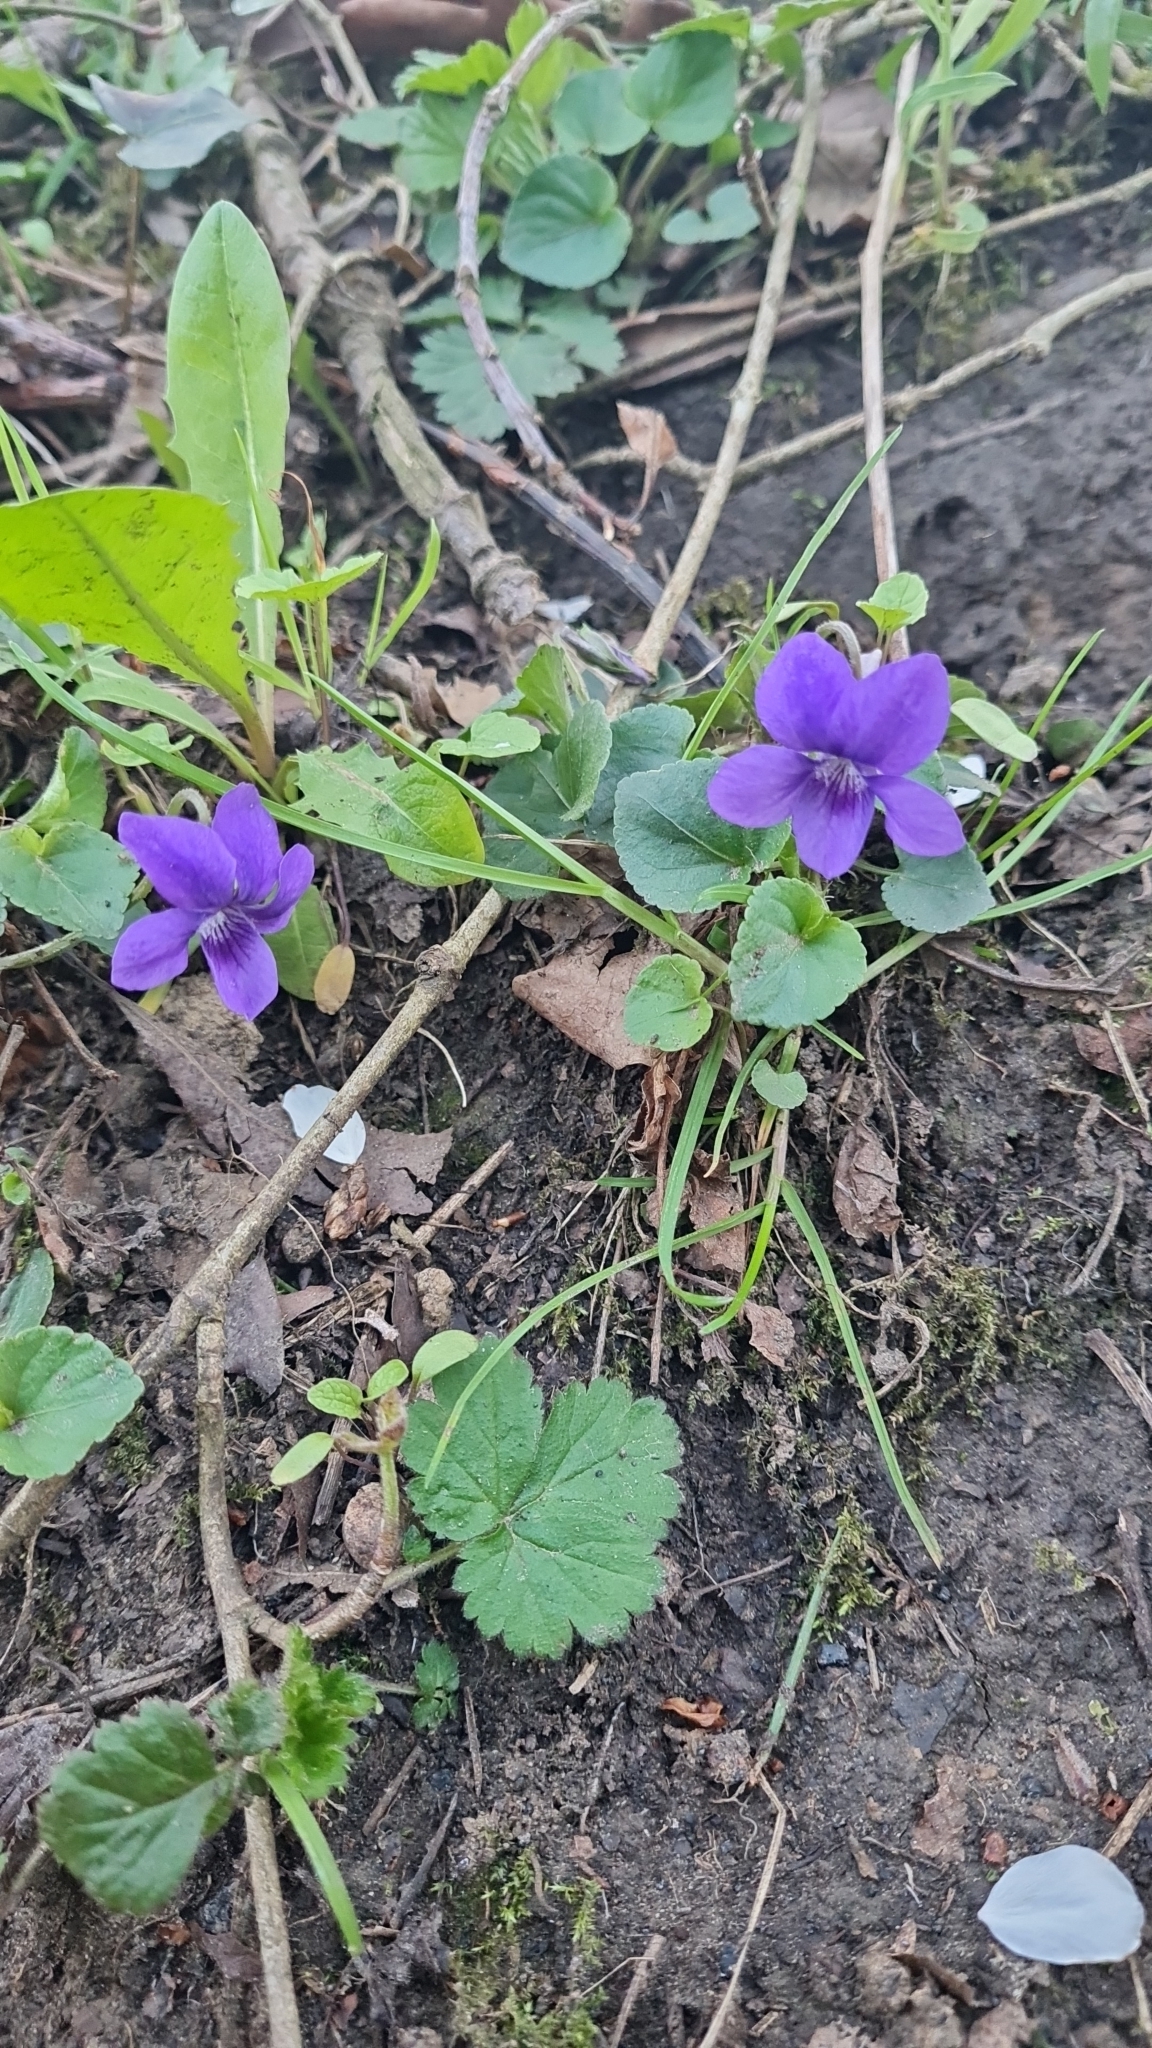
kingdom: Plantae
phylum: Tracheophyta
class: Magnoliopsida
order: Malpighiales
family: Violaceae
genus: Viola
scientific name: Viola riviniana
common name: Common dog-violet
